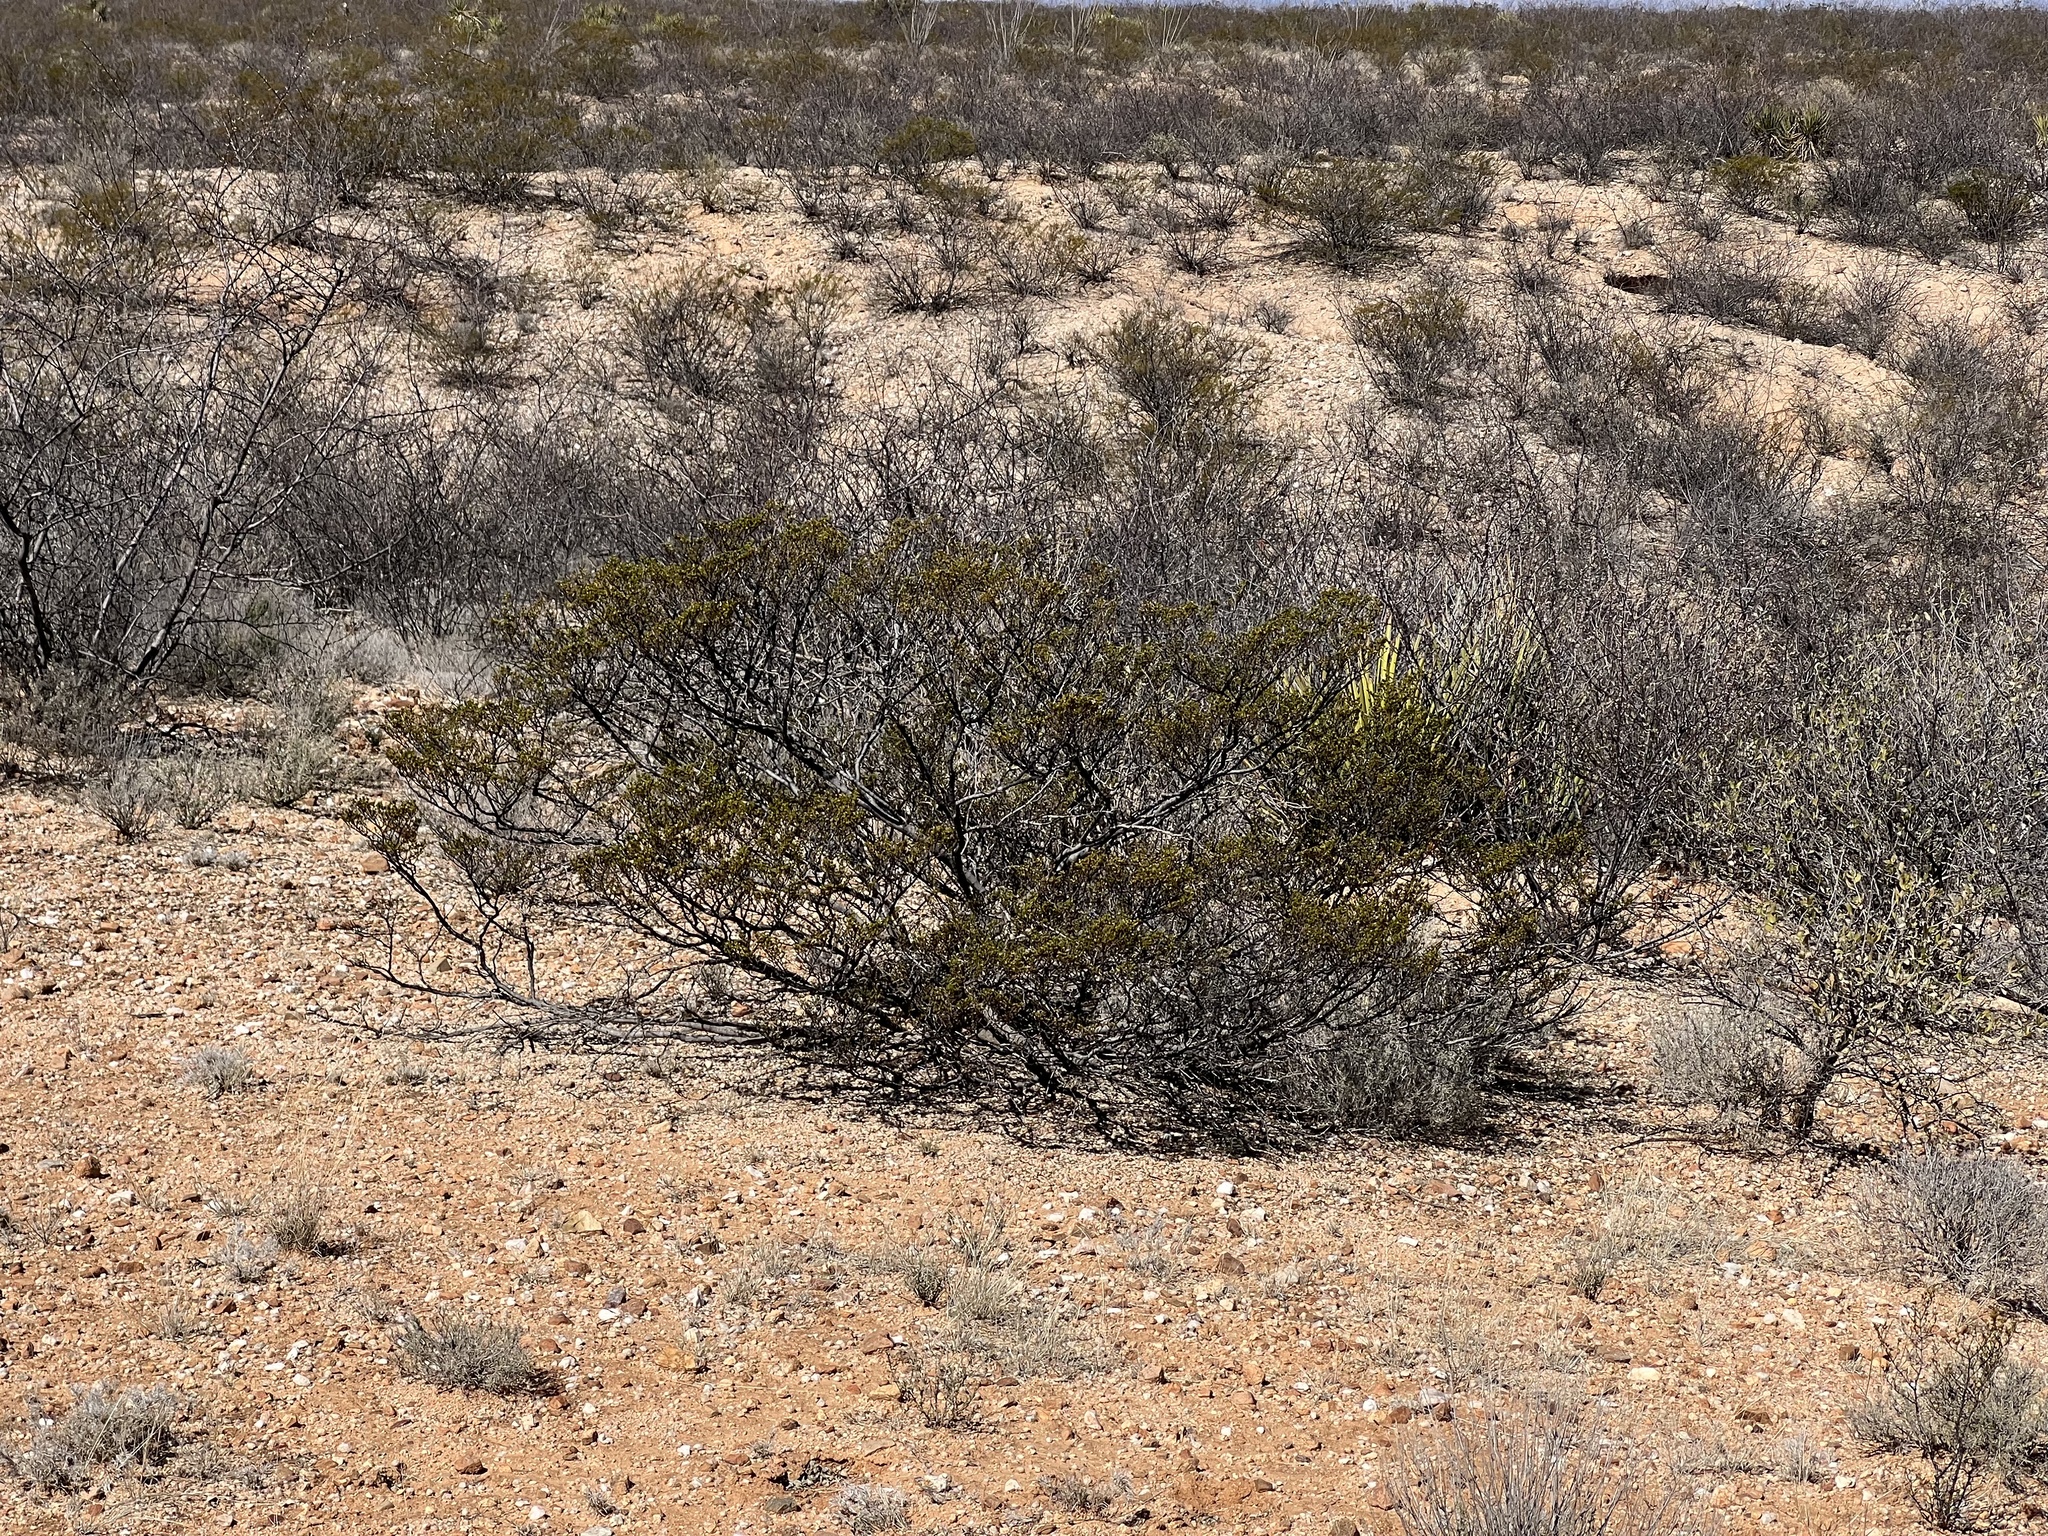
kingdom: Plantae
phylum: Tracheophyta
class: Magnoliopsida
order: Zygophyllales
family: Zygophyllaceae
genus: Larrea
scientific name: Larrea tridentata
